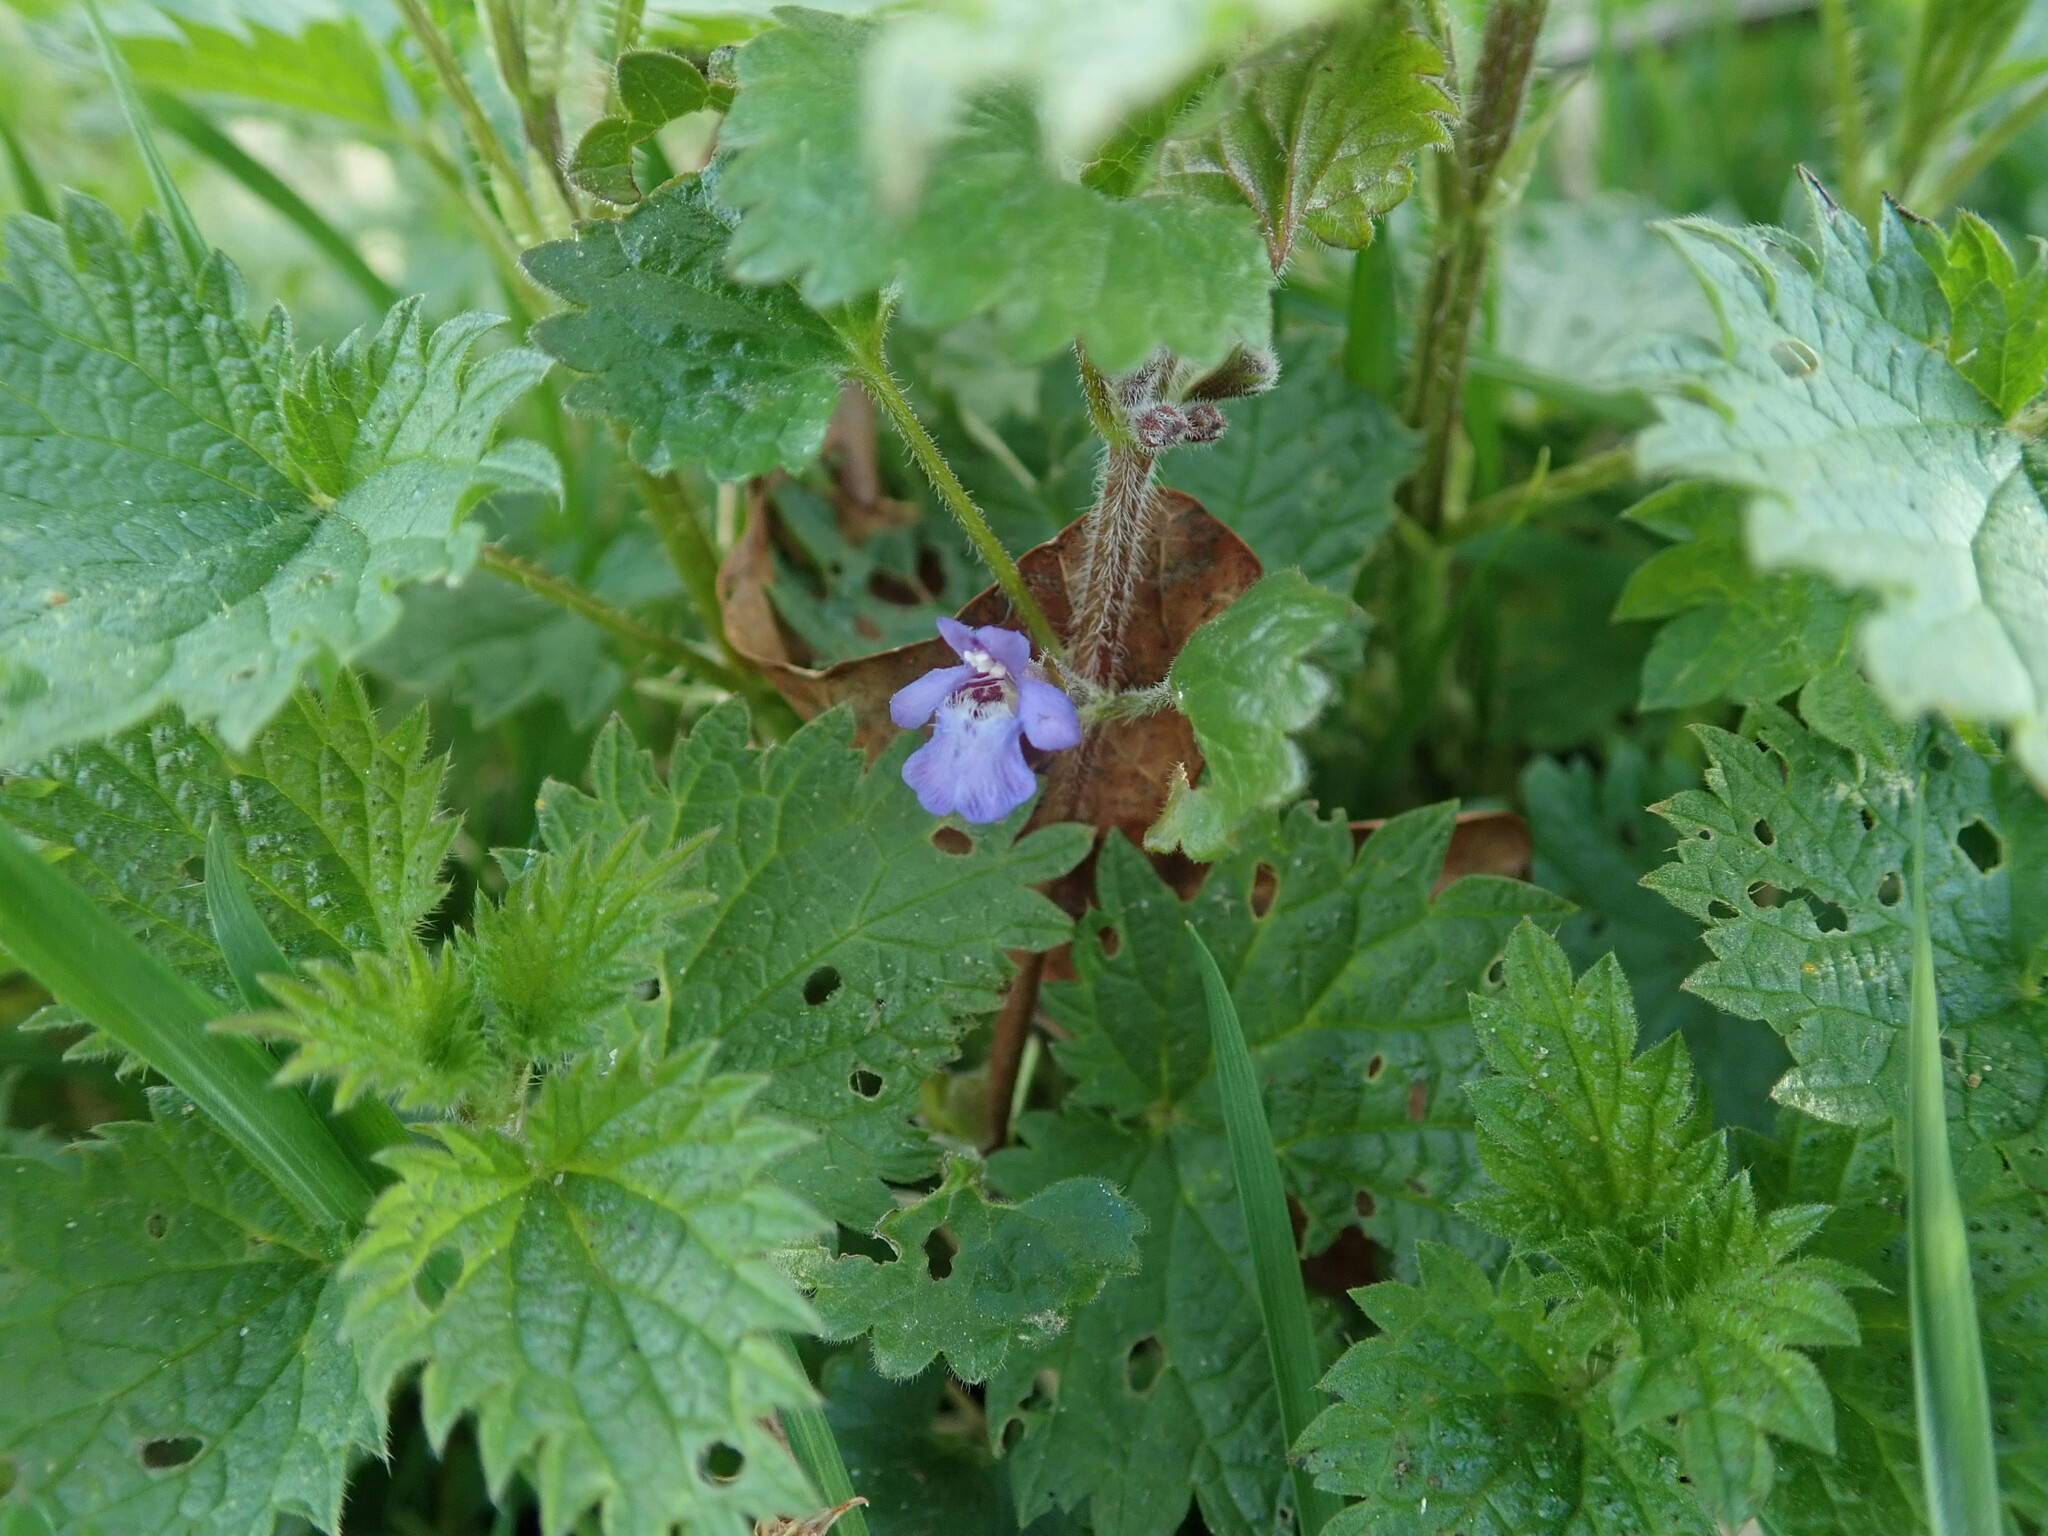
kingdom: Plantae
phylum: Tracheophyta
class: Magnoliopsida
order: Lamiales
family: Lamiaceae
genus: Glechoma
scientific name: Glechoma hederacea
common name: Ground ivy
